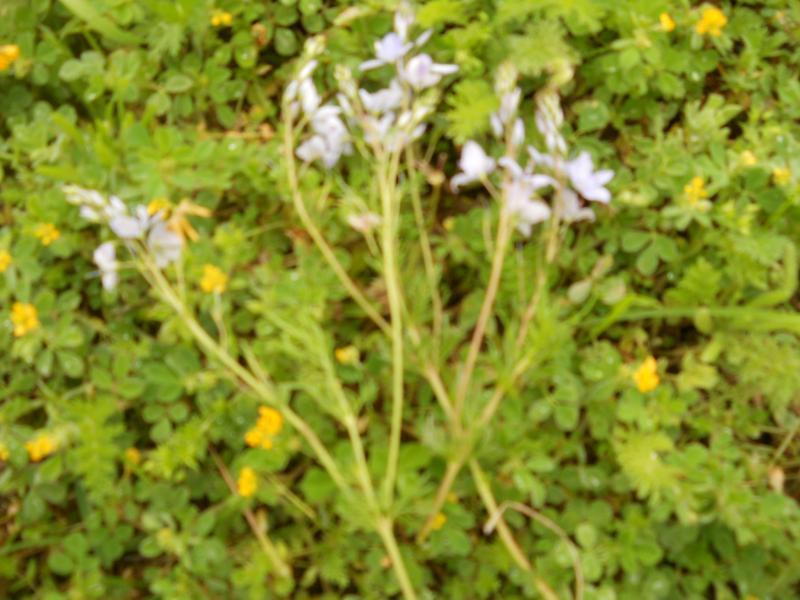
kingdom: Plantae
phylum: Tracheophyta
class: Magnoliopsida
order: Lamiales
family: Plantaginaceae
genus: Veronica
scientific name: Veronica multifida
